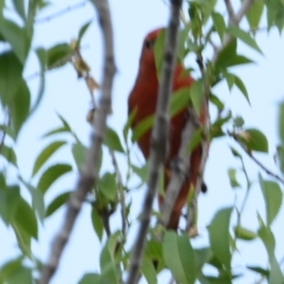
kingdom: Animalia
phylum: Chordata
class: Aves
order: Passeriformes
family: Cardinalidae
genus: Piranga
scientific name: Piranga flava
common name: Red tanager
